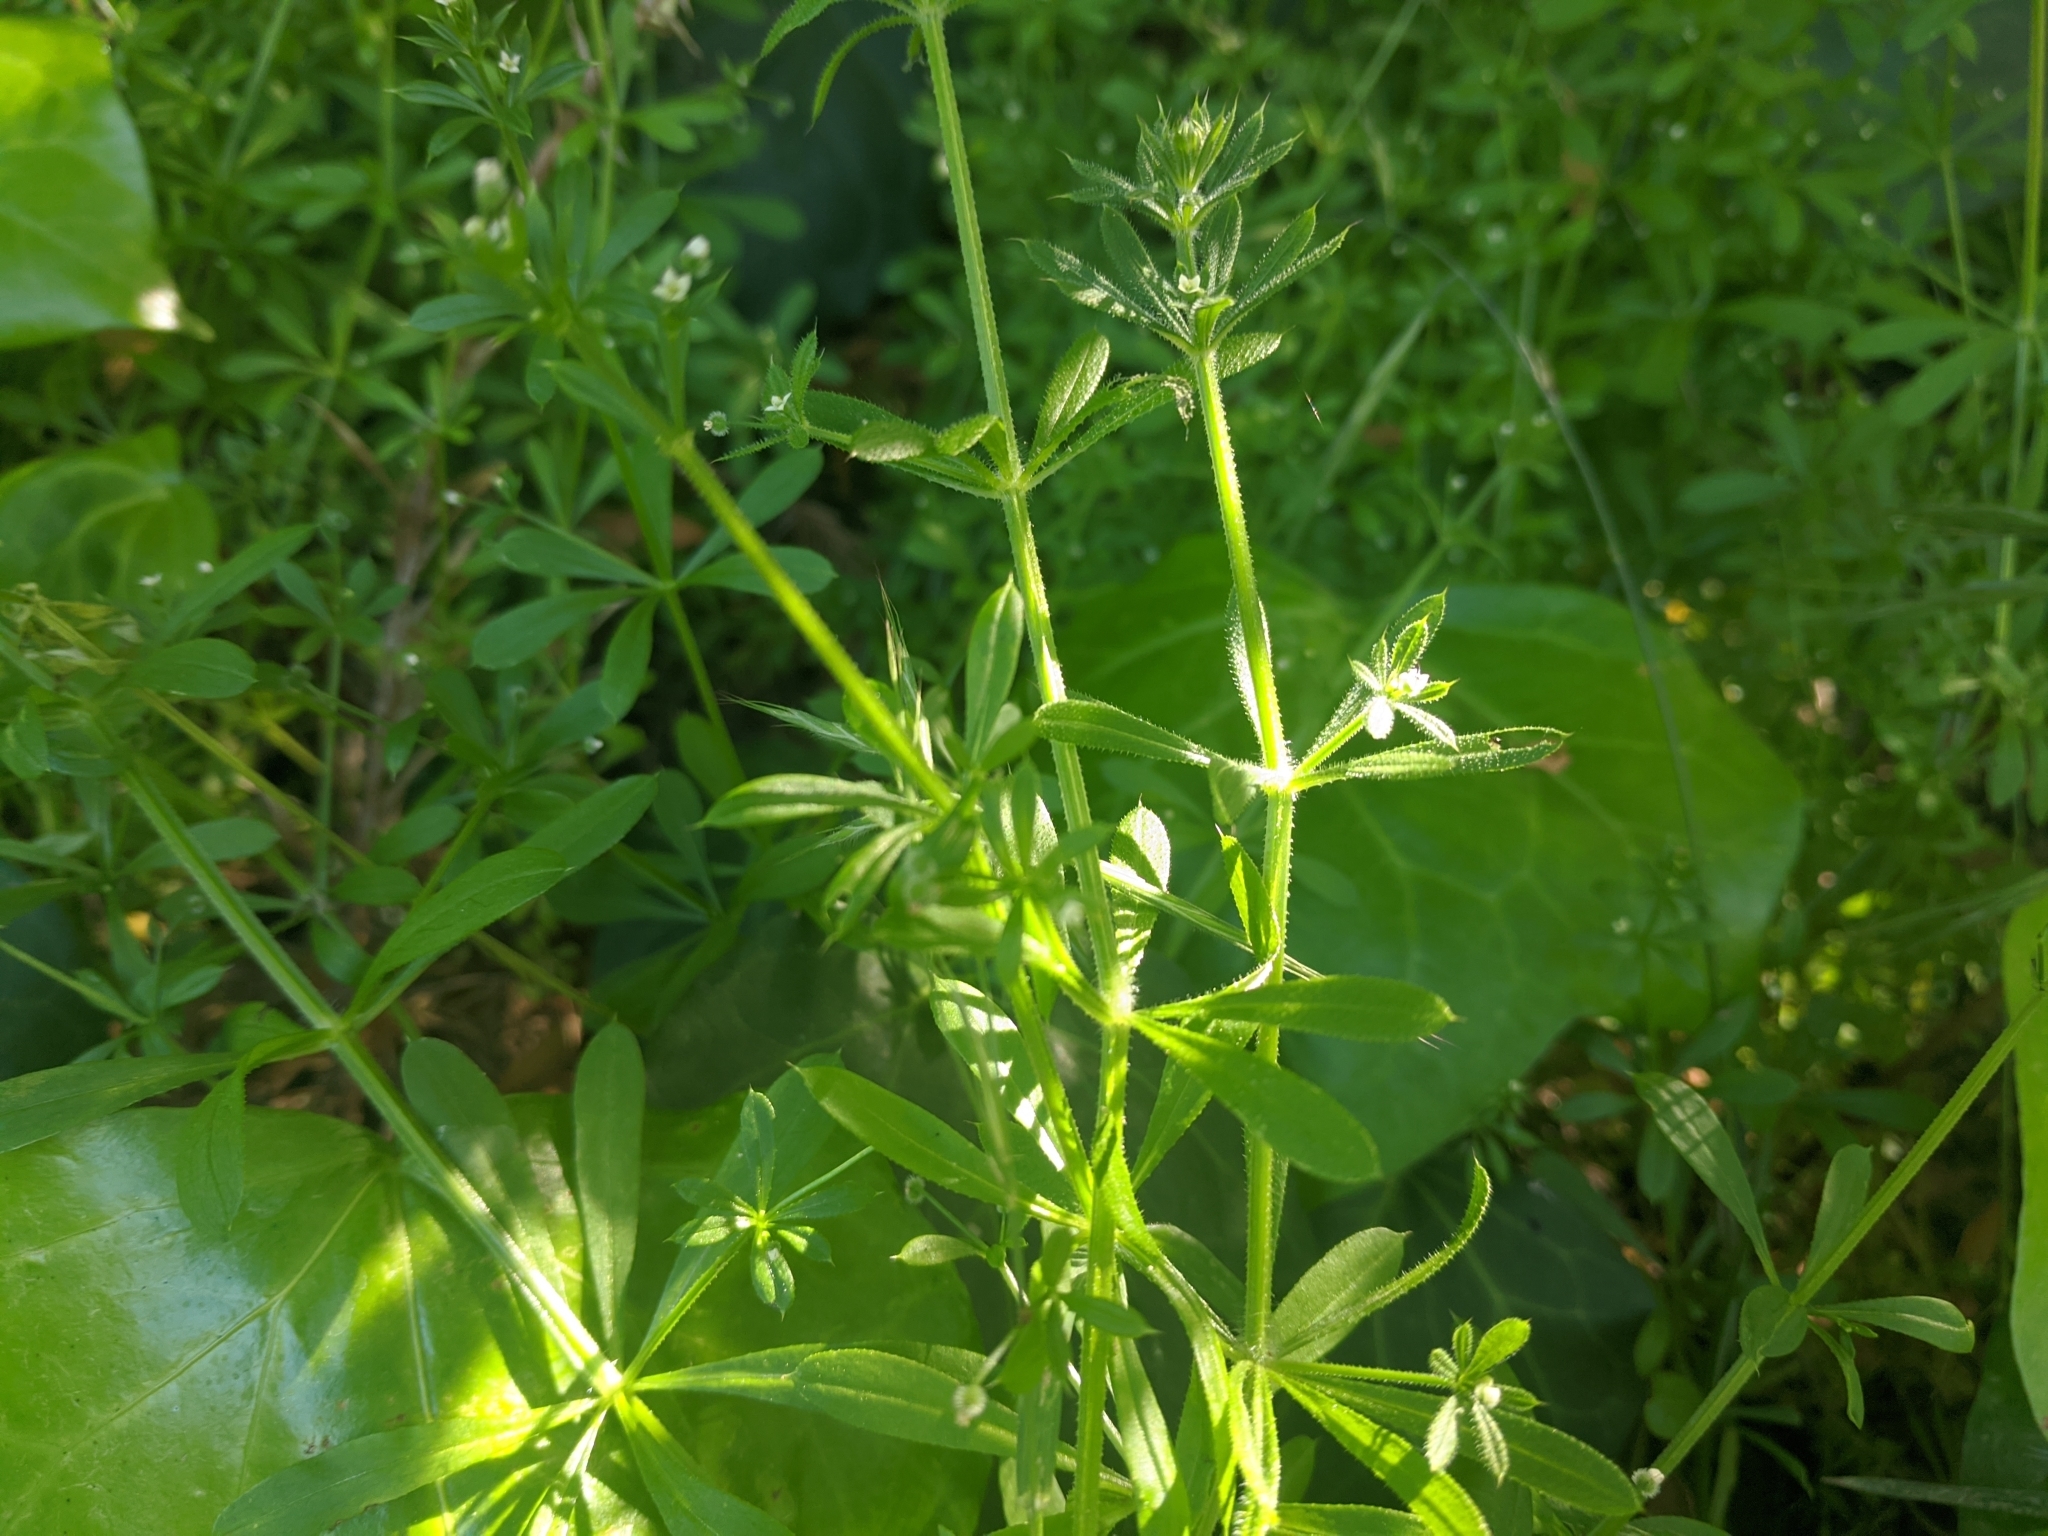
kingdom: Plantae
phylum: Tracheophyta
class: Magnoliopsida
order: Gentianales
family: Rubiaceae
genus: Galium
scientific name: Galium aparine
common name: Cleavers
